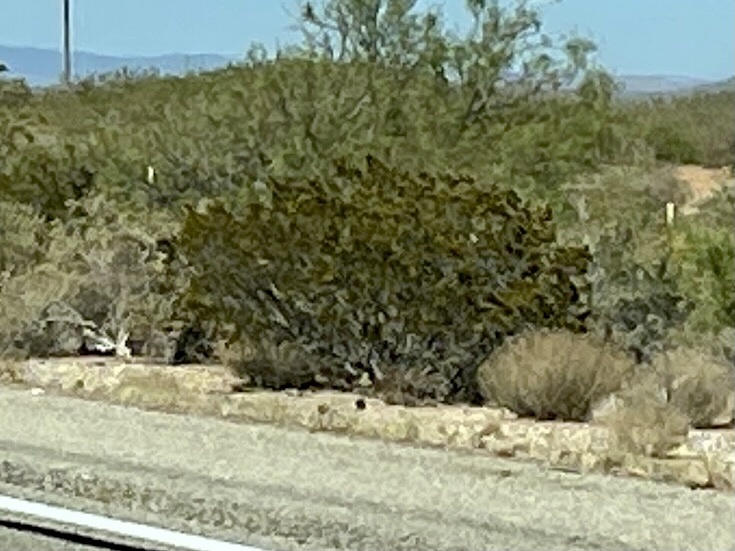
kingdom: Plantae
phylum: Tracheophyta
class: Magnoliopsida
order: Zygophyllales
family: Zygophyllaceae
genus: Larrea
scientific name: Larrea tridentata
